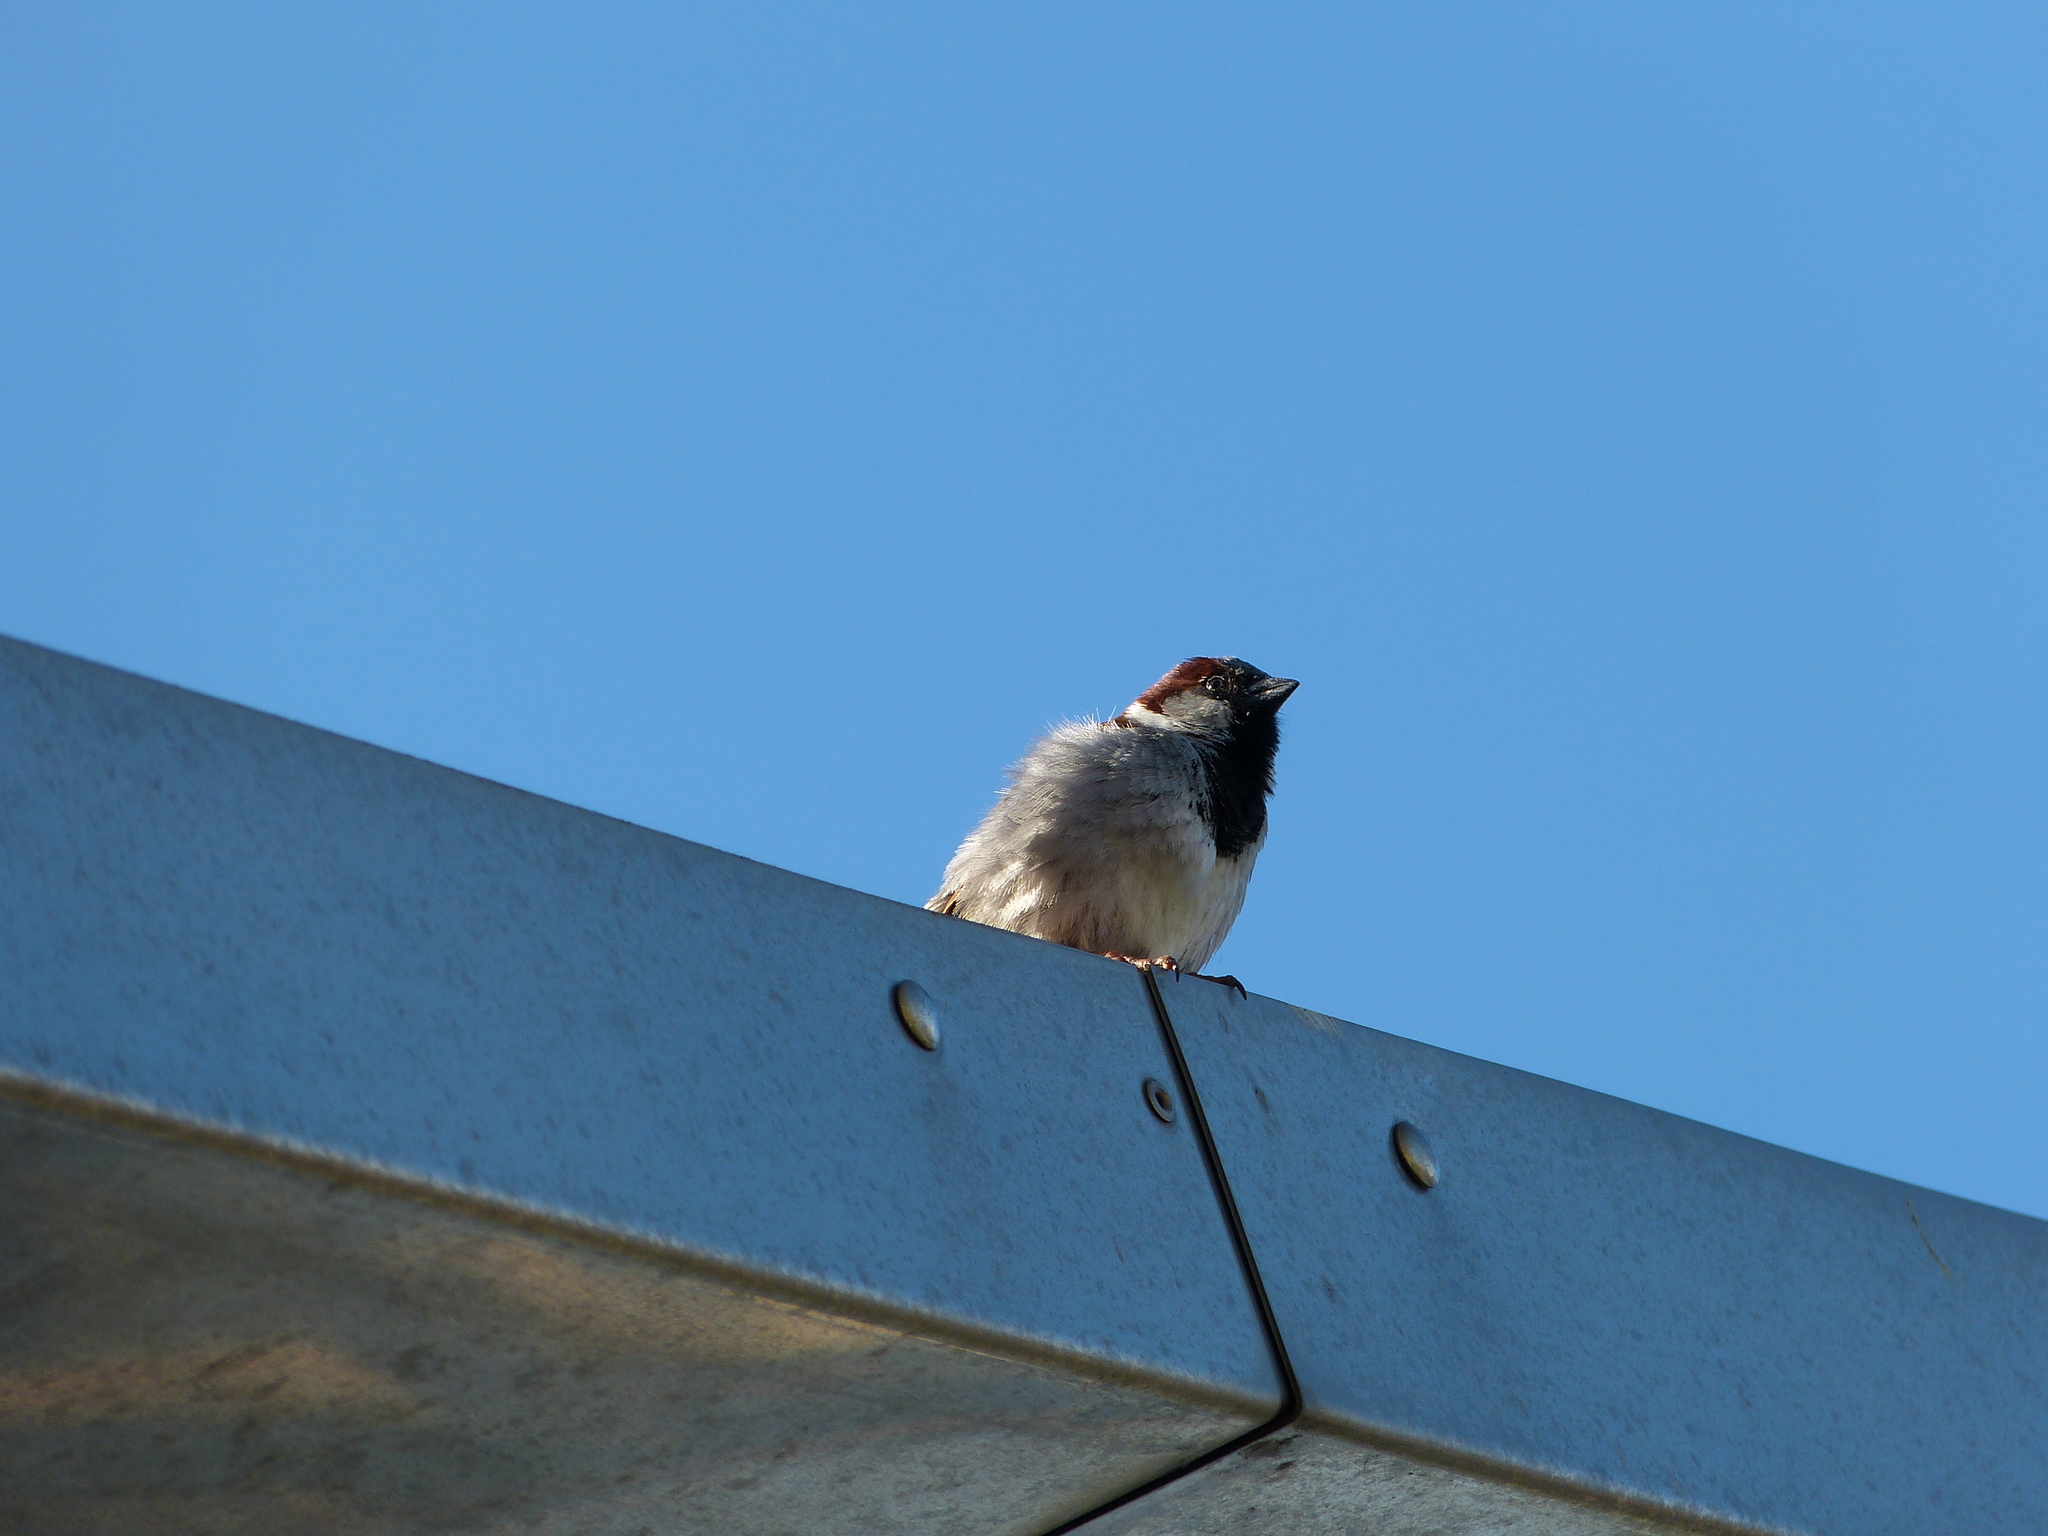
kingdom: Animalia
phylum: Chordata
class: Aves
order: Passeriformes
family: Passeridae
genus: Passer
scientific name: Passer domesticus
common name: House sparrow
